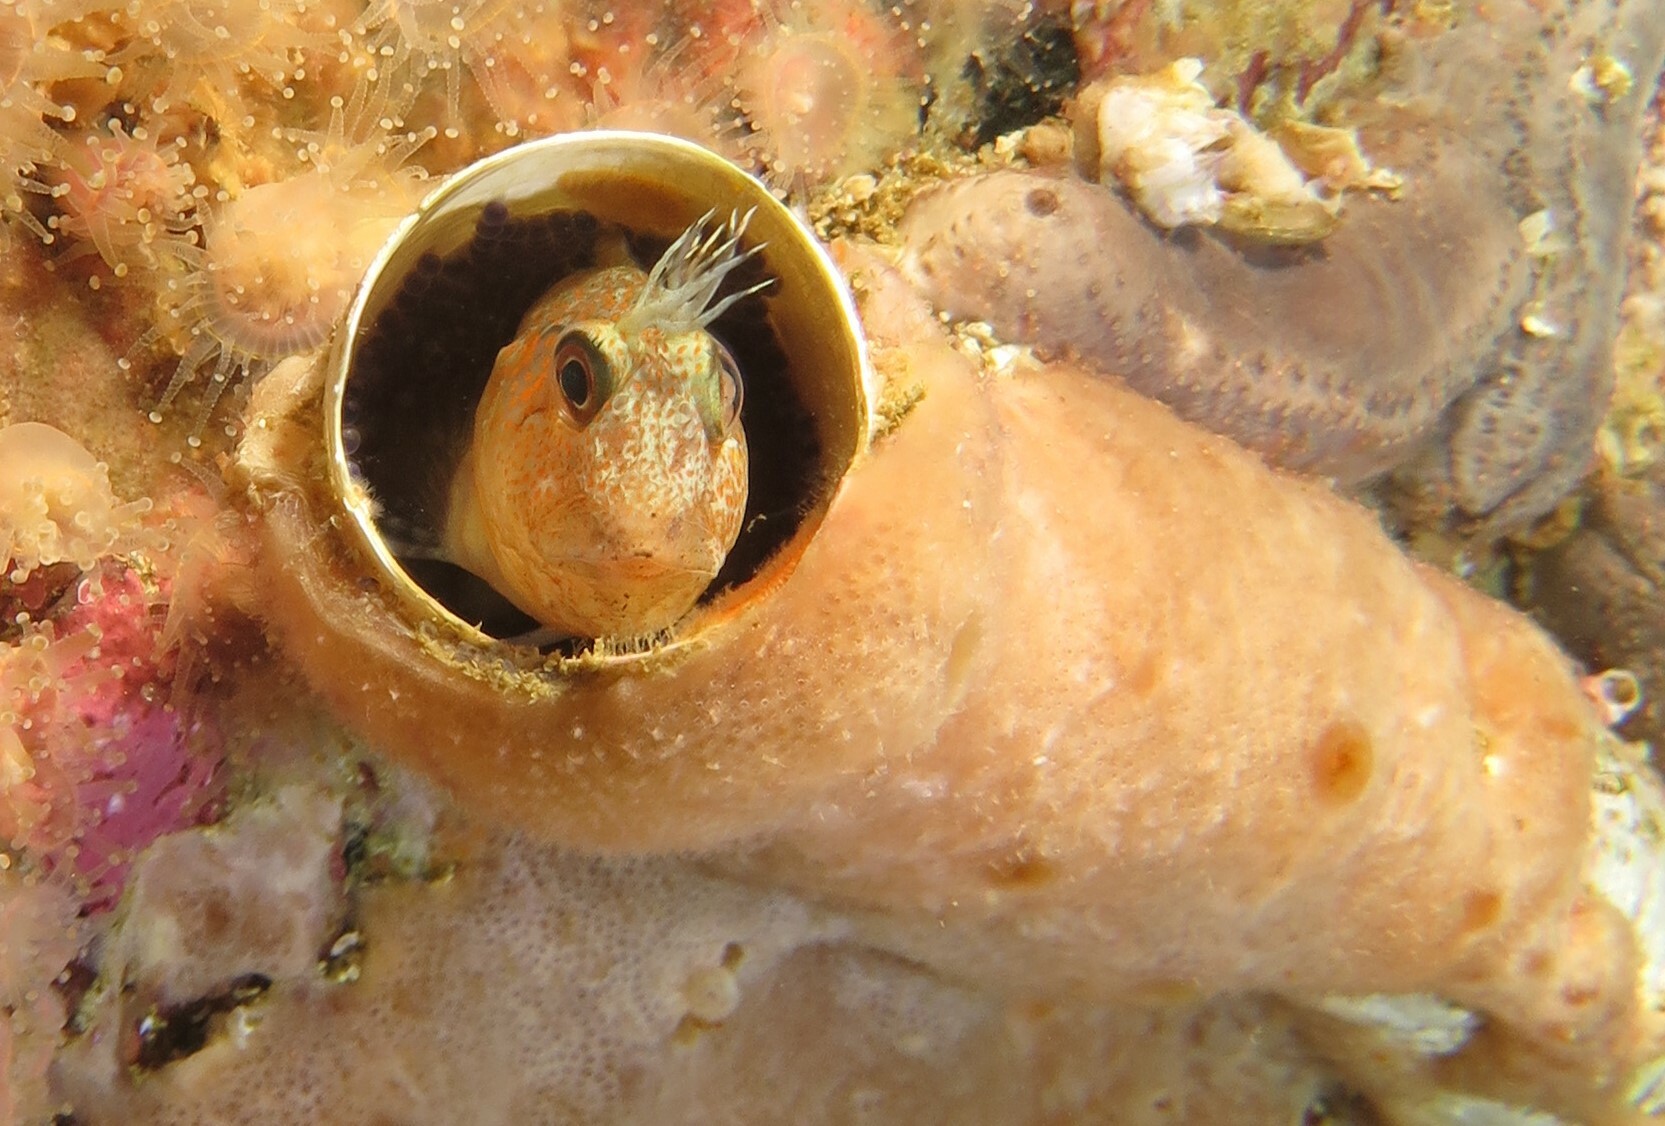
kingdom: Animalia
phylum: Chordata
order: Perciformes
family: Blenniidae
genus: Chalaroderma
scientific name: Chalaroderma ocellata
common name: Two-eyed blenny
